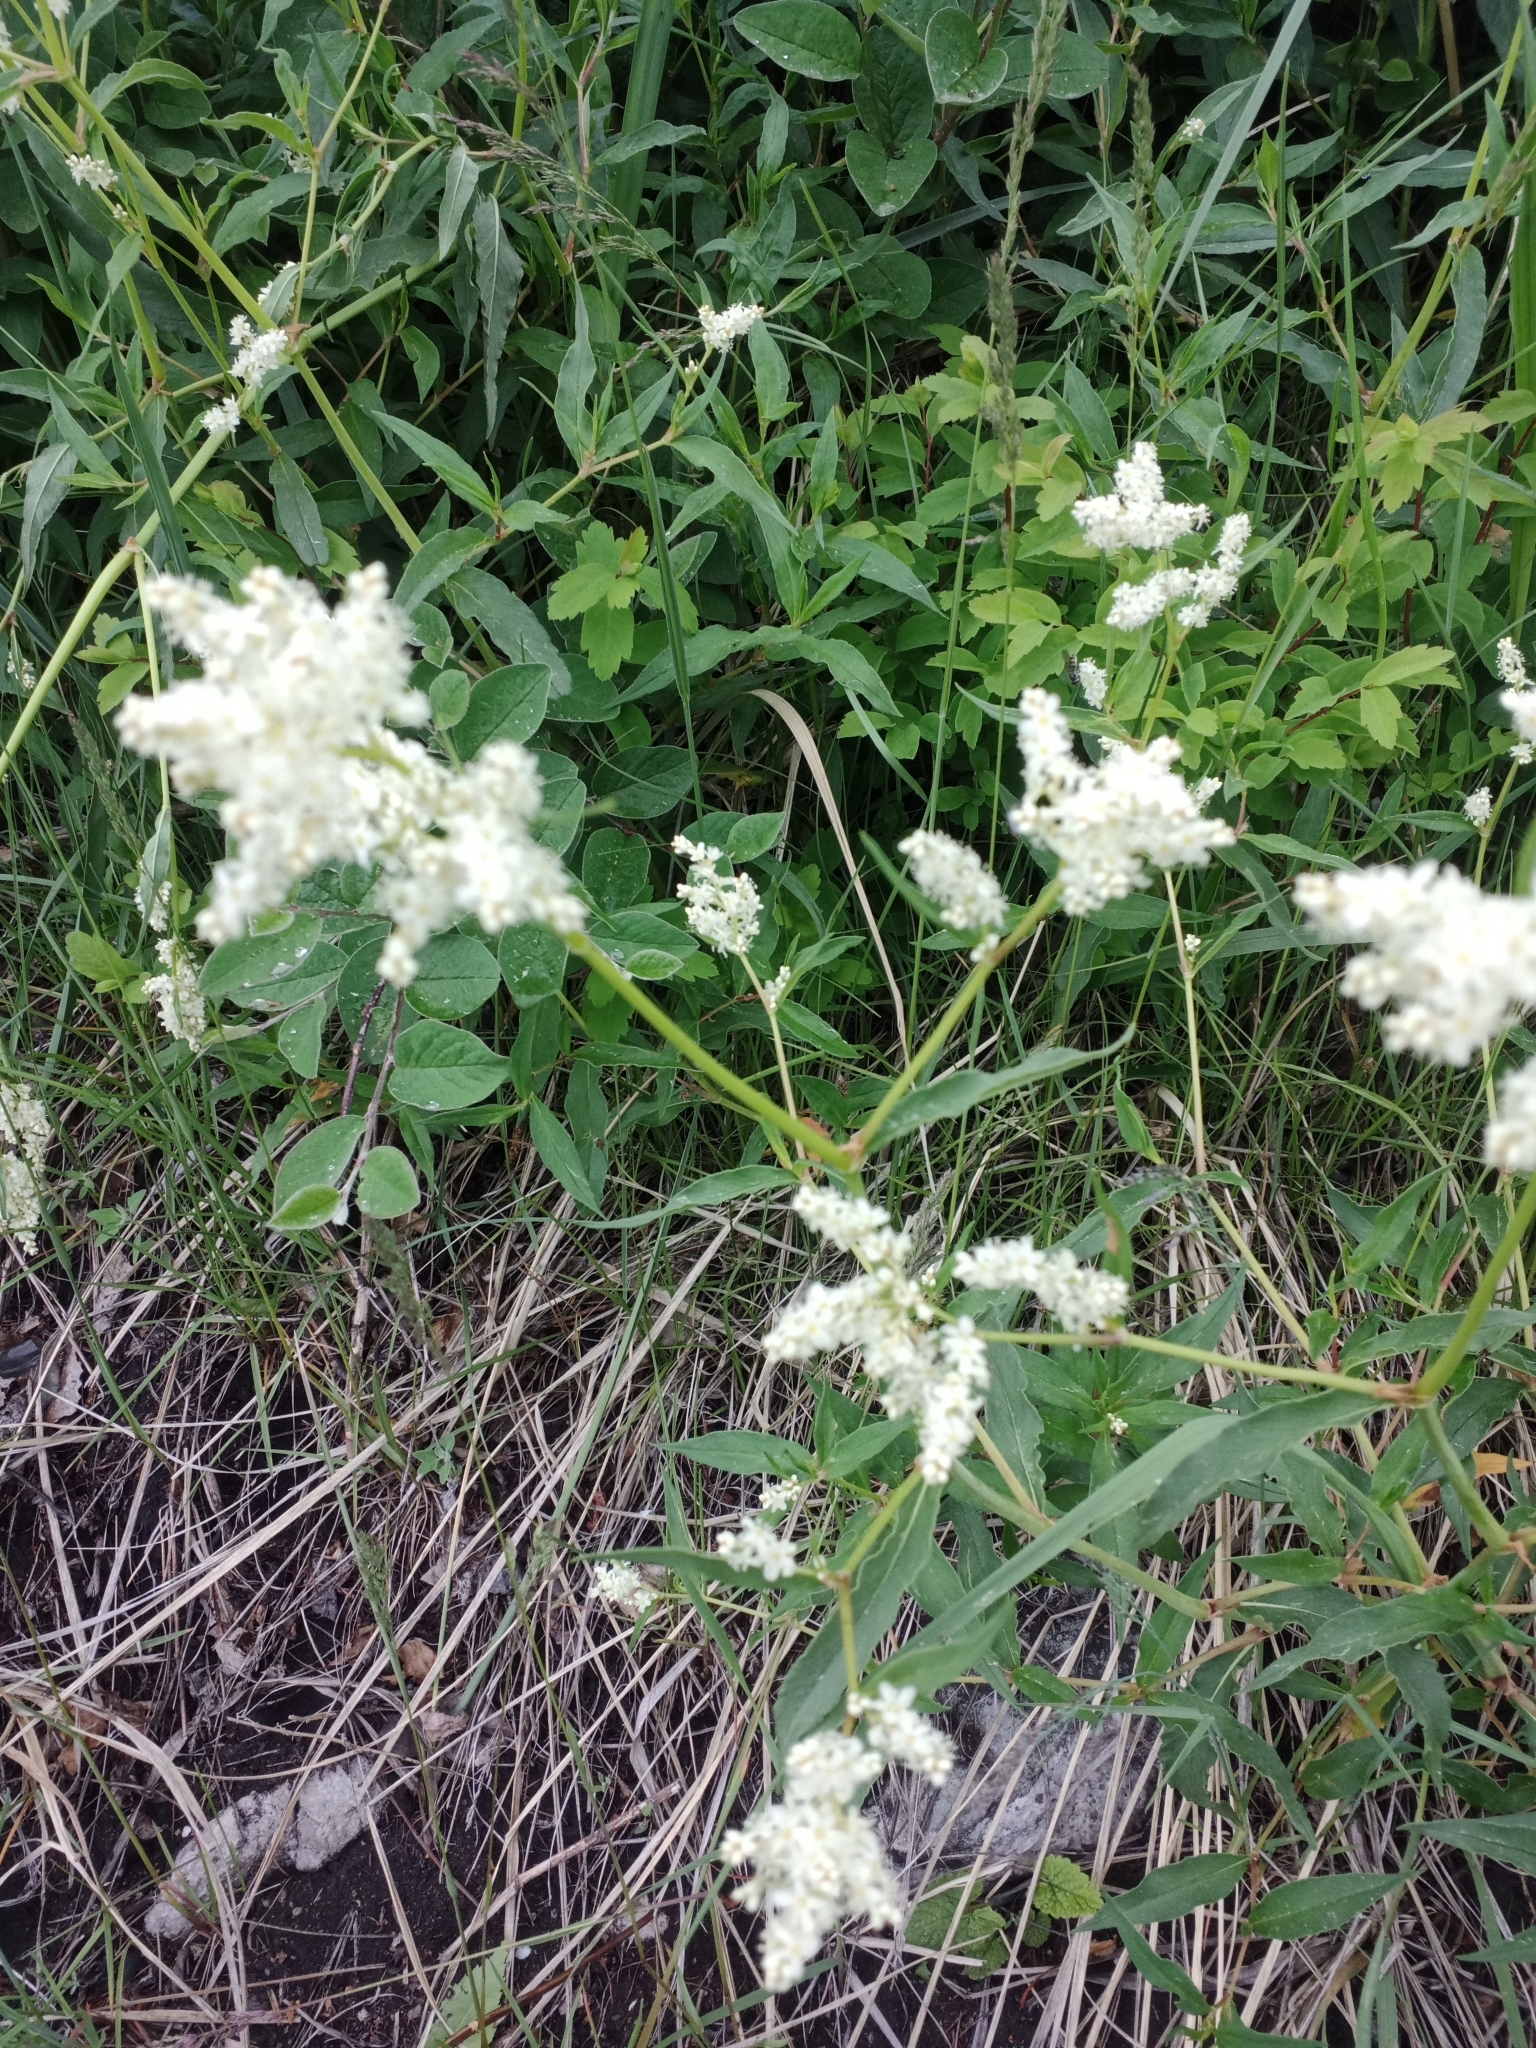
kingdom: Plantae
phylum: Tracheophyta
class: Magnoliopsida
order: Caryophyllales
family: Polygonaceae
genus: Koenigia
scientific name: Koenigia alpina
